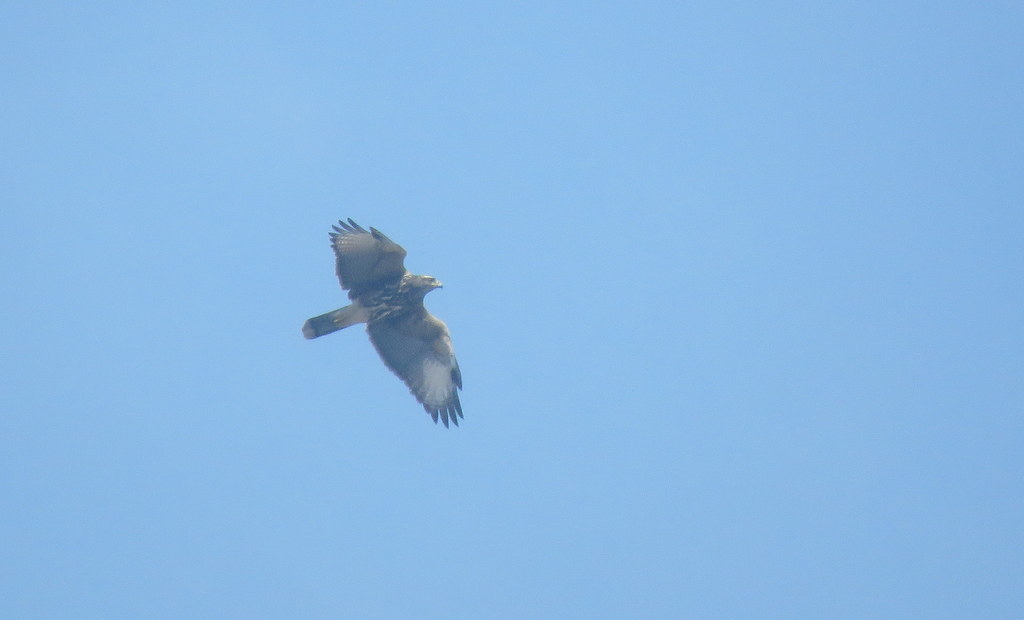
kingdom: Animalia
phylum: Chordata
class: Aves
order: Accipitriformes
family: Accipitridae
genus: Parabuteo
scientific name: Parabuteo unicinctus
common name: Harris's hawk
